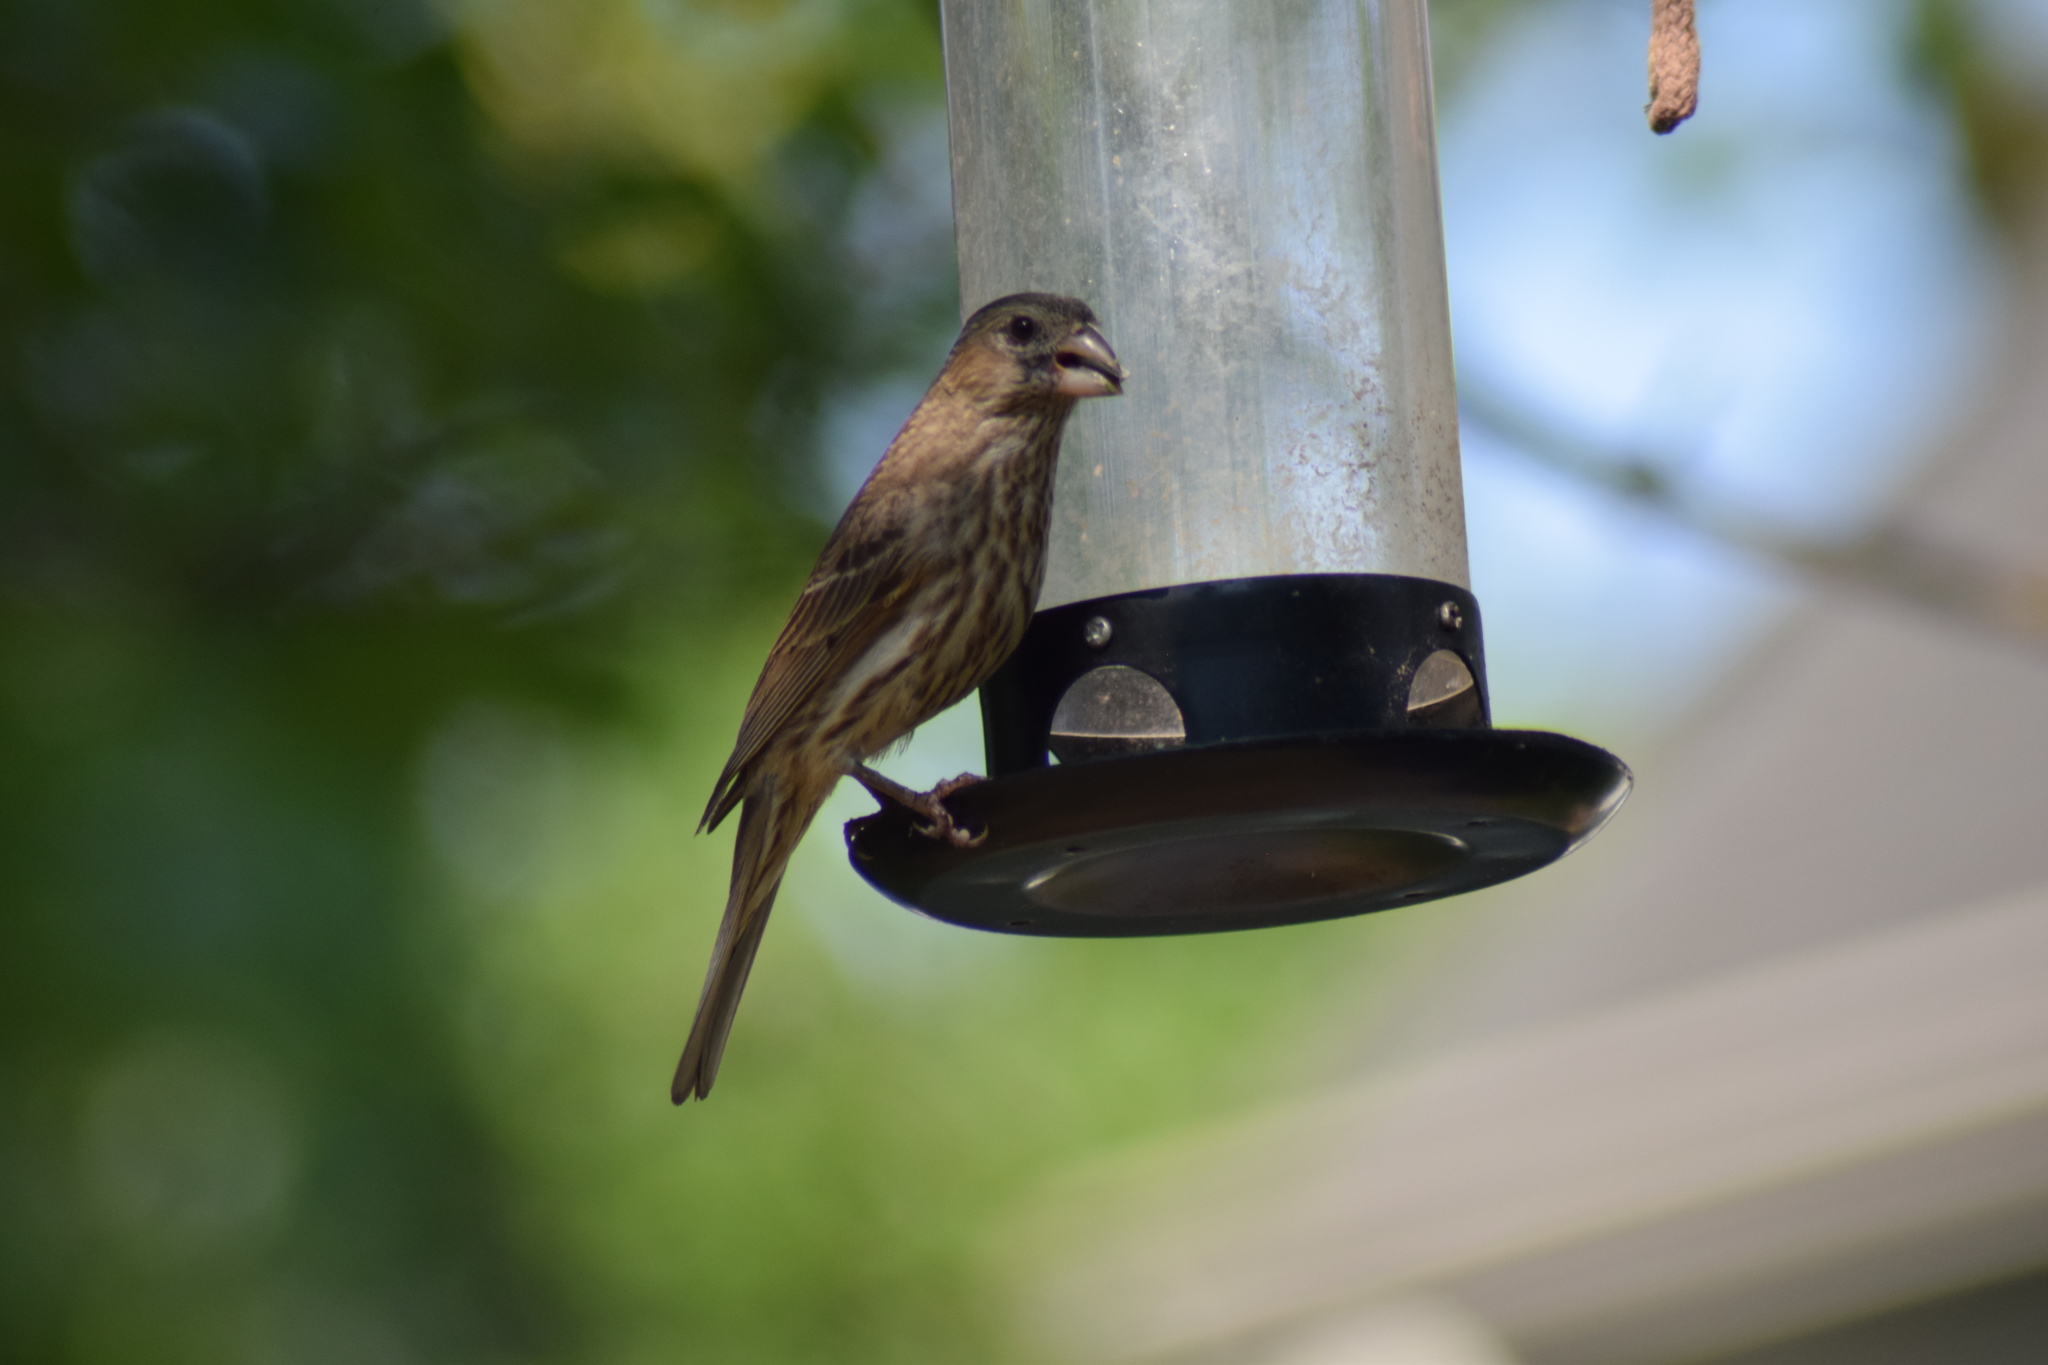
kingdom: Animalia
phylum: Chordata
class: Aves
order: Passeriformes
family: Fringillidae
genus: Haemorhous
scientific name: Haemorhous mexicanus
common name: House finch
